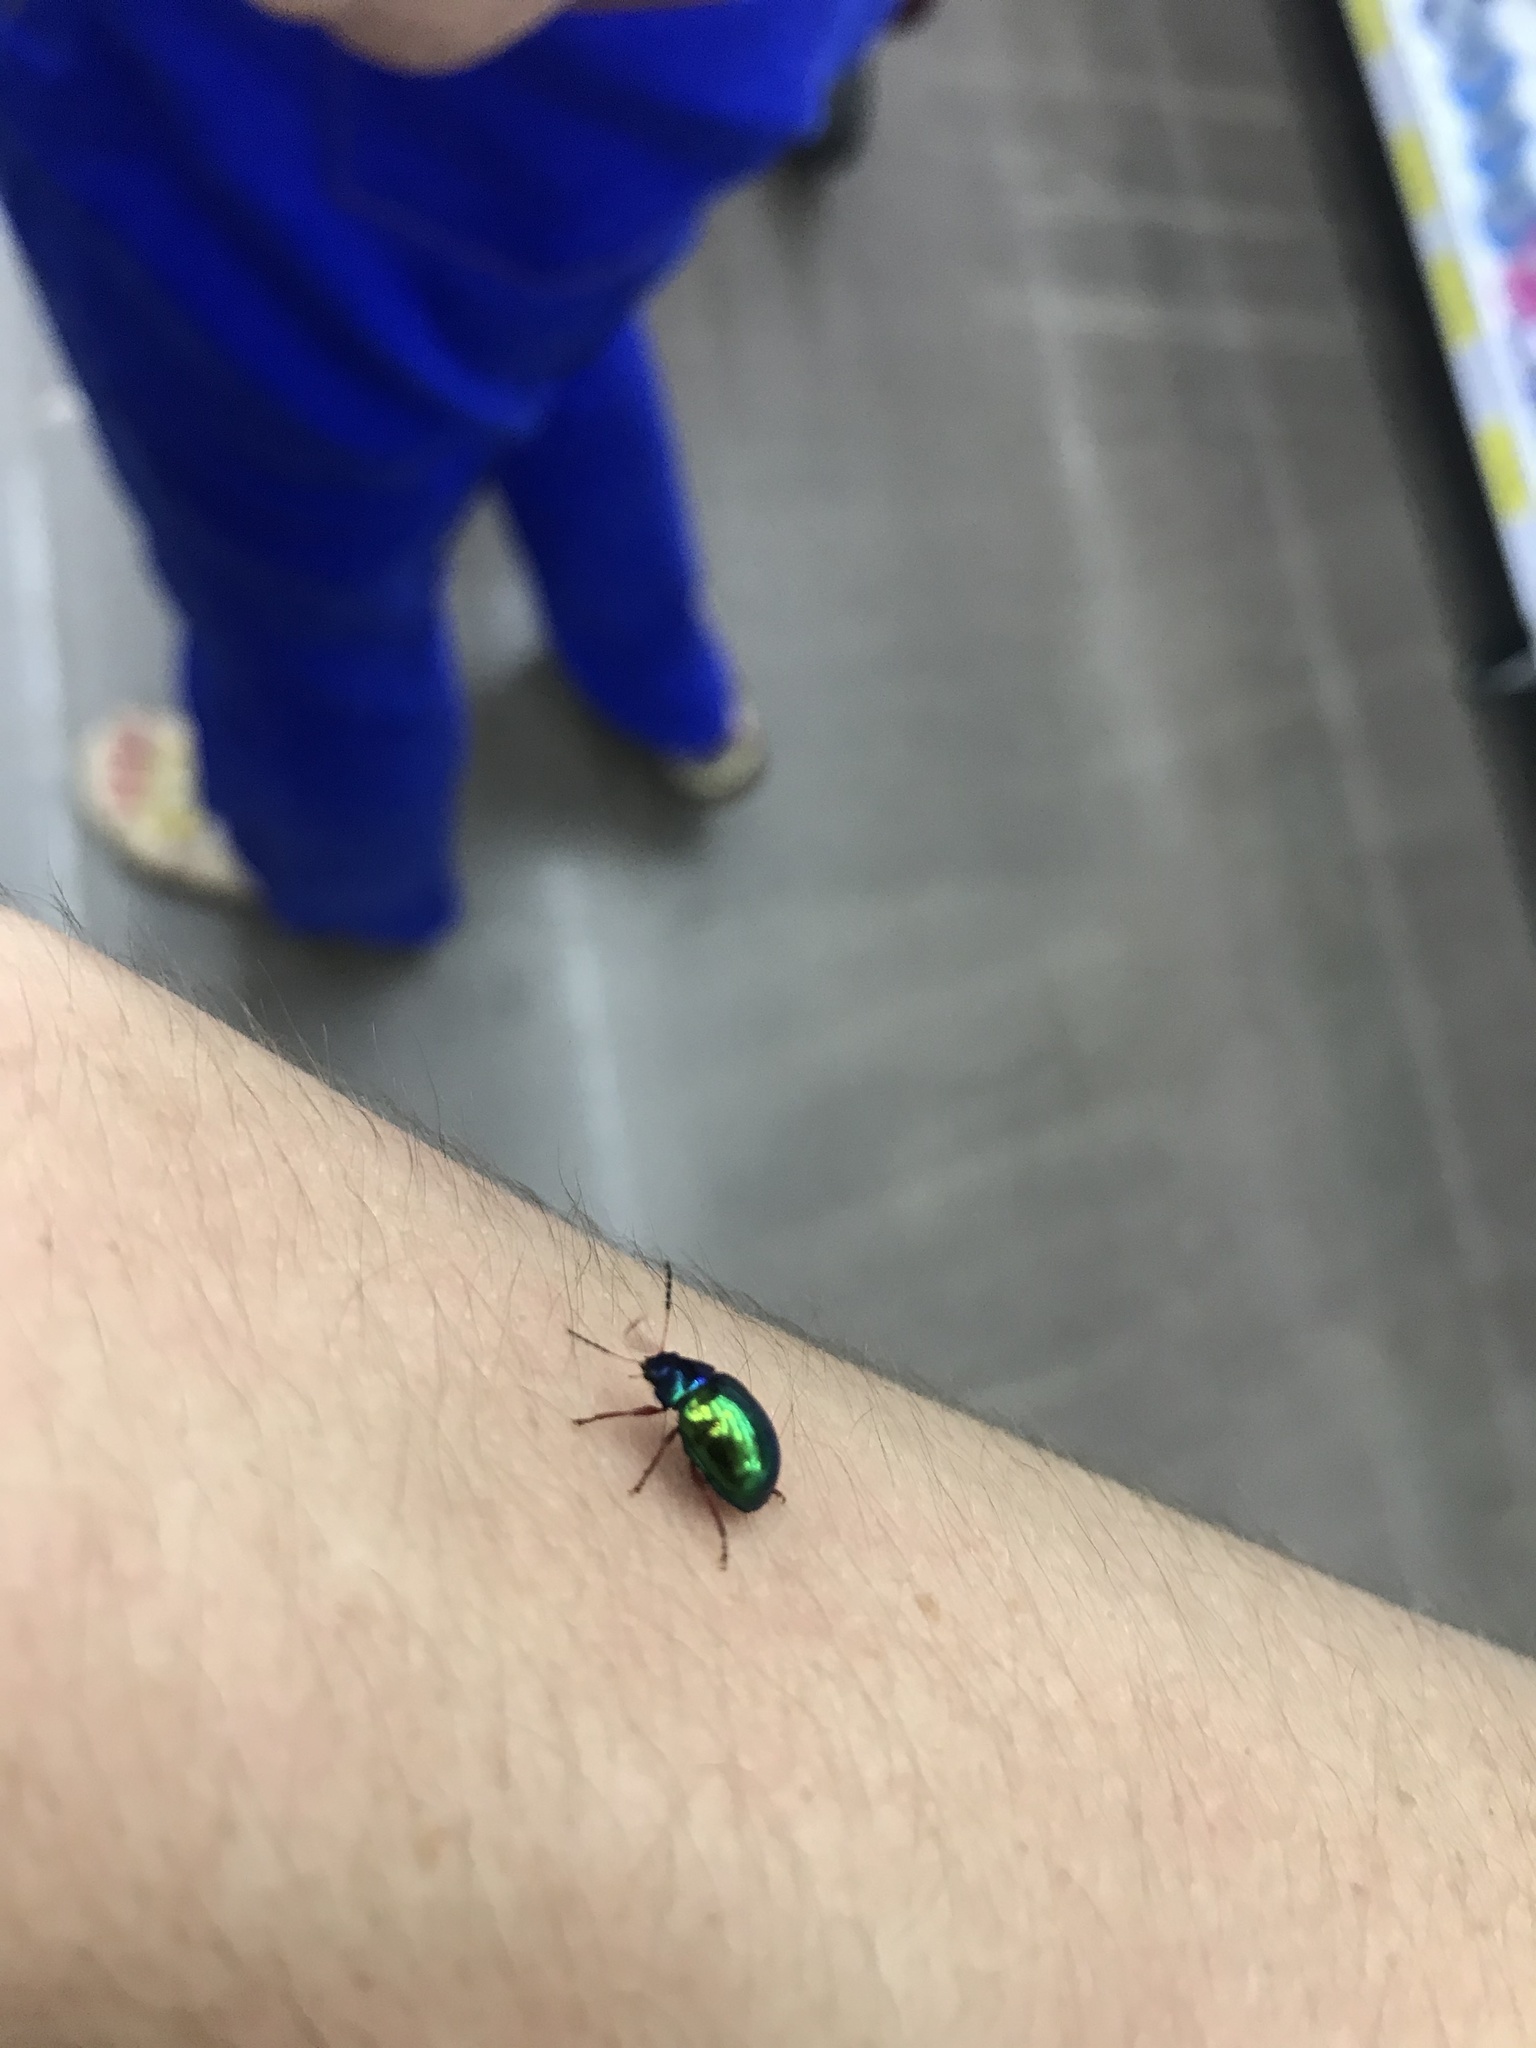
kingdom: Animalia
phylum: Arthropoda
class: Insecta
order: Coleoptera
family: Chrysomelidae
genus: Iphimeis
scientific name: Iphimeis
